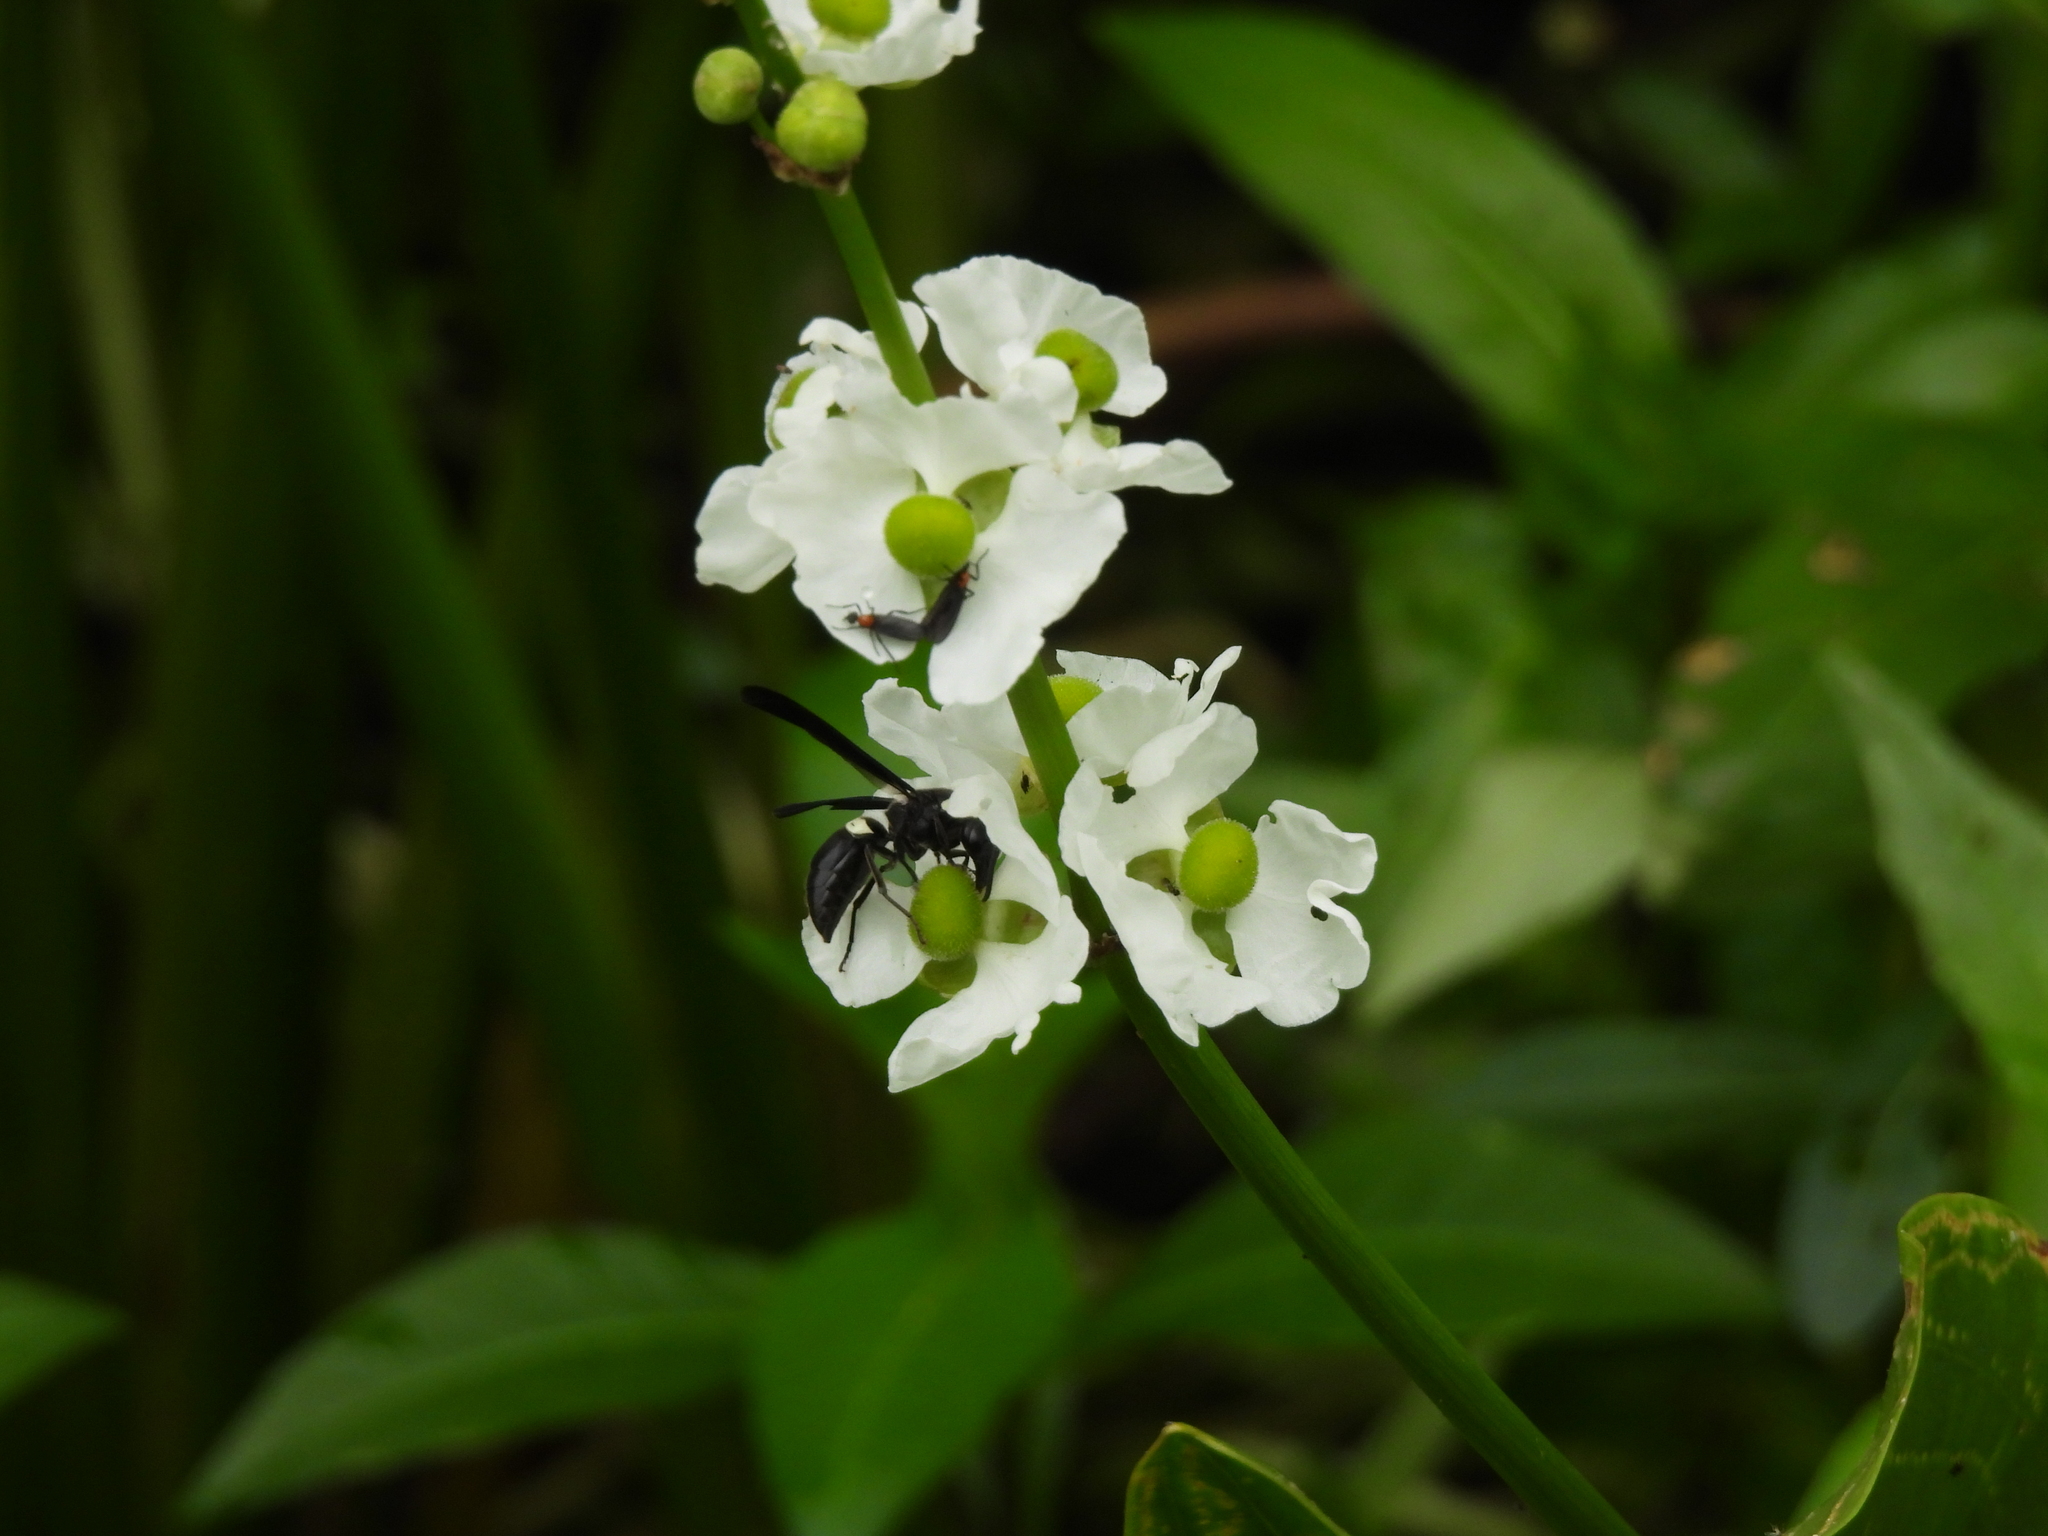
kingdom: Animalia
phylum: Arthropoda
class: Insecta
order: Hymenoptera
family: Eumenidae
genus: Monobia
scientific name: Monobia quadridens
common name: Four-toothed mason wasp
